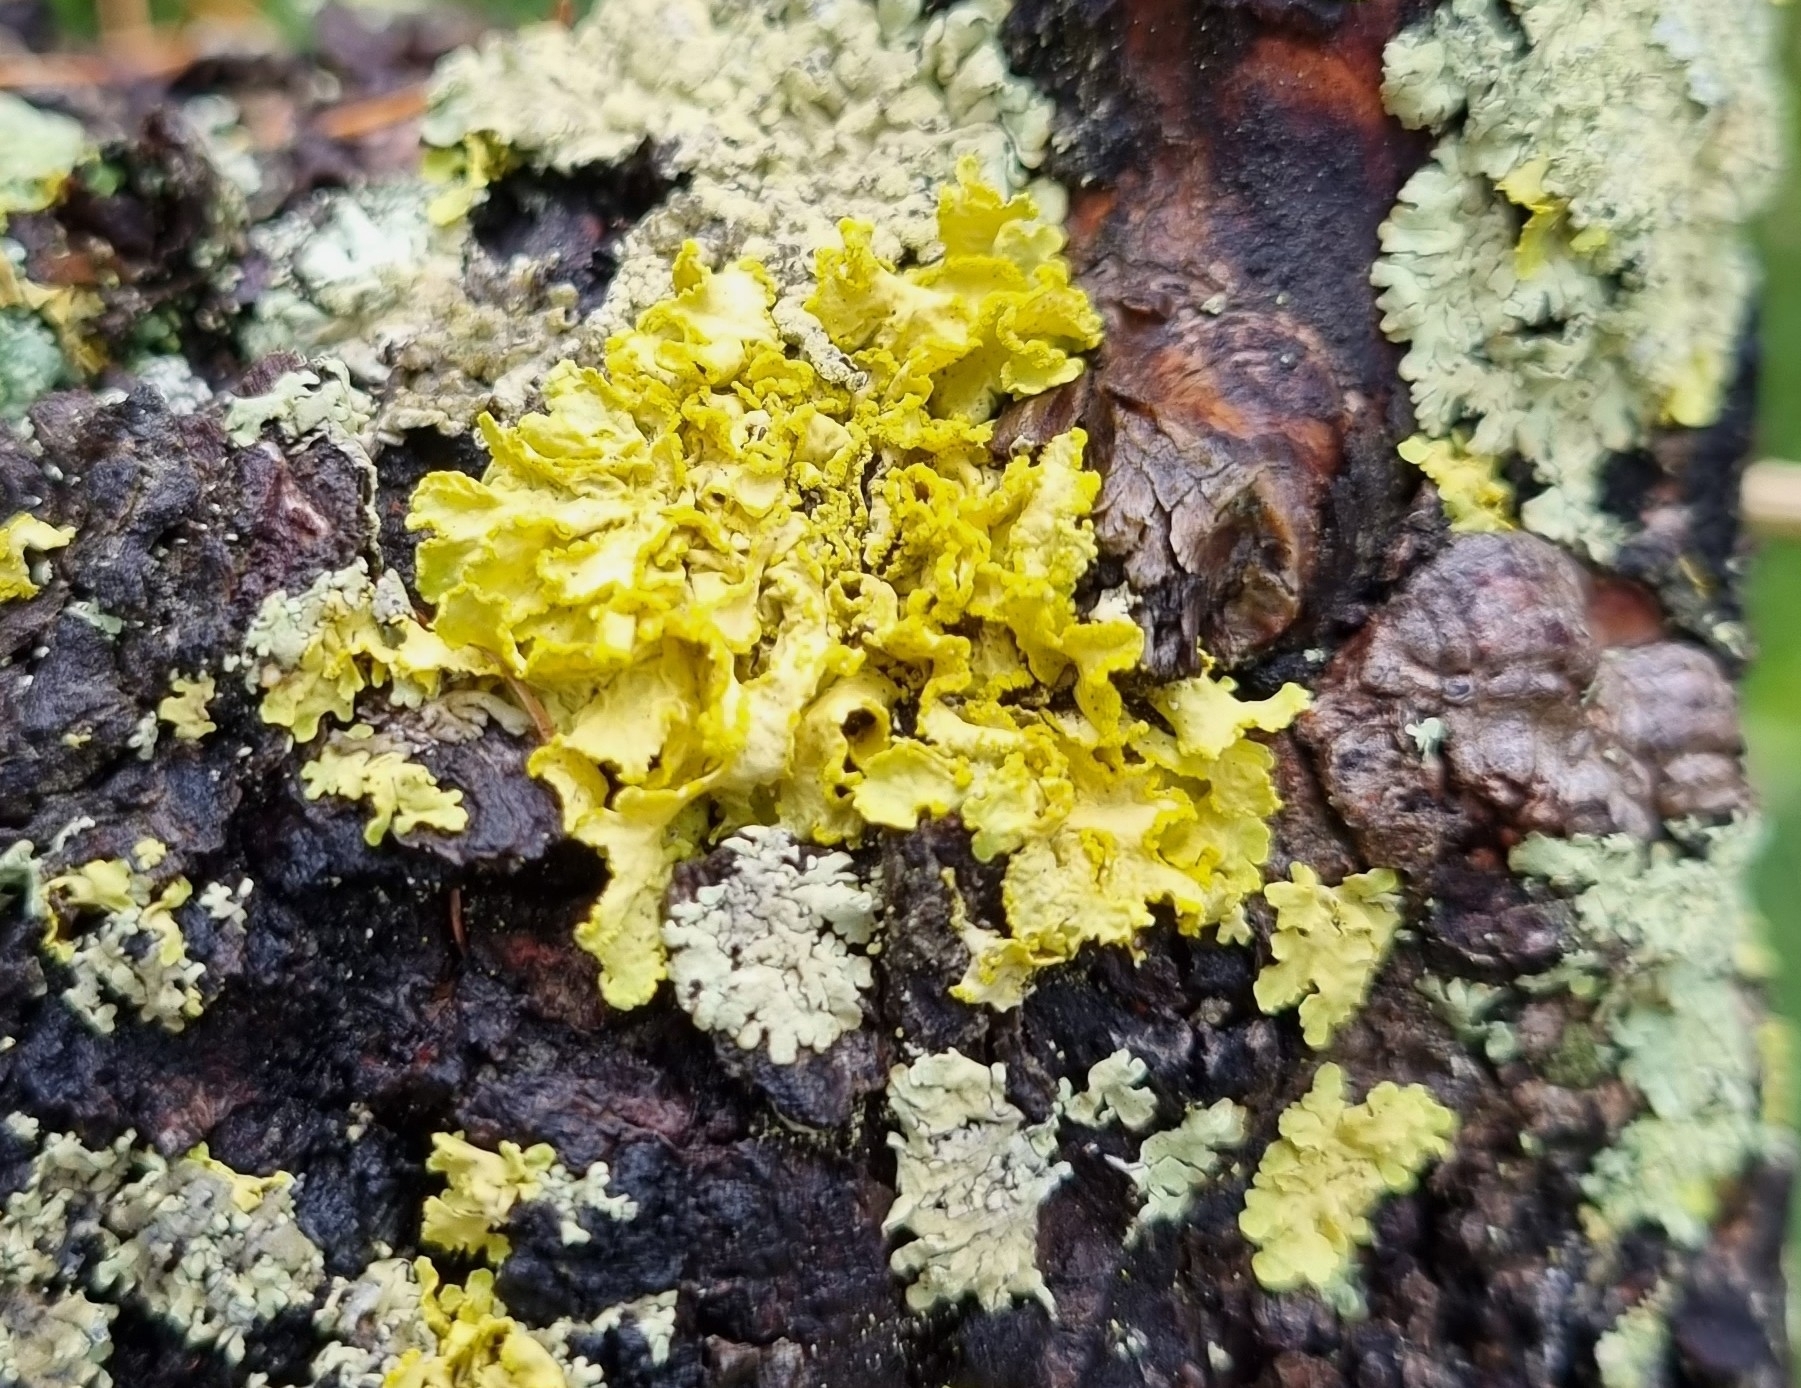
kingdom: Fungi
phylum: Ascomycota
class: Lecanoromycetes
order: Lecanorales
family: Parmeliaceae
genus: Vulpicida
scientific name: Vulpicida pinastri
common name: Powdered sunshine lichen
